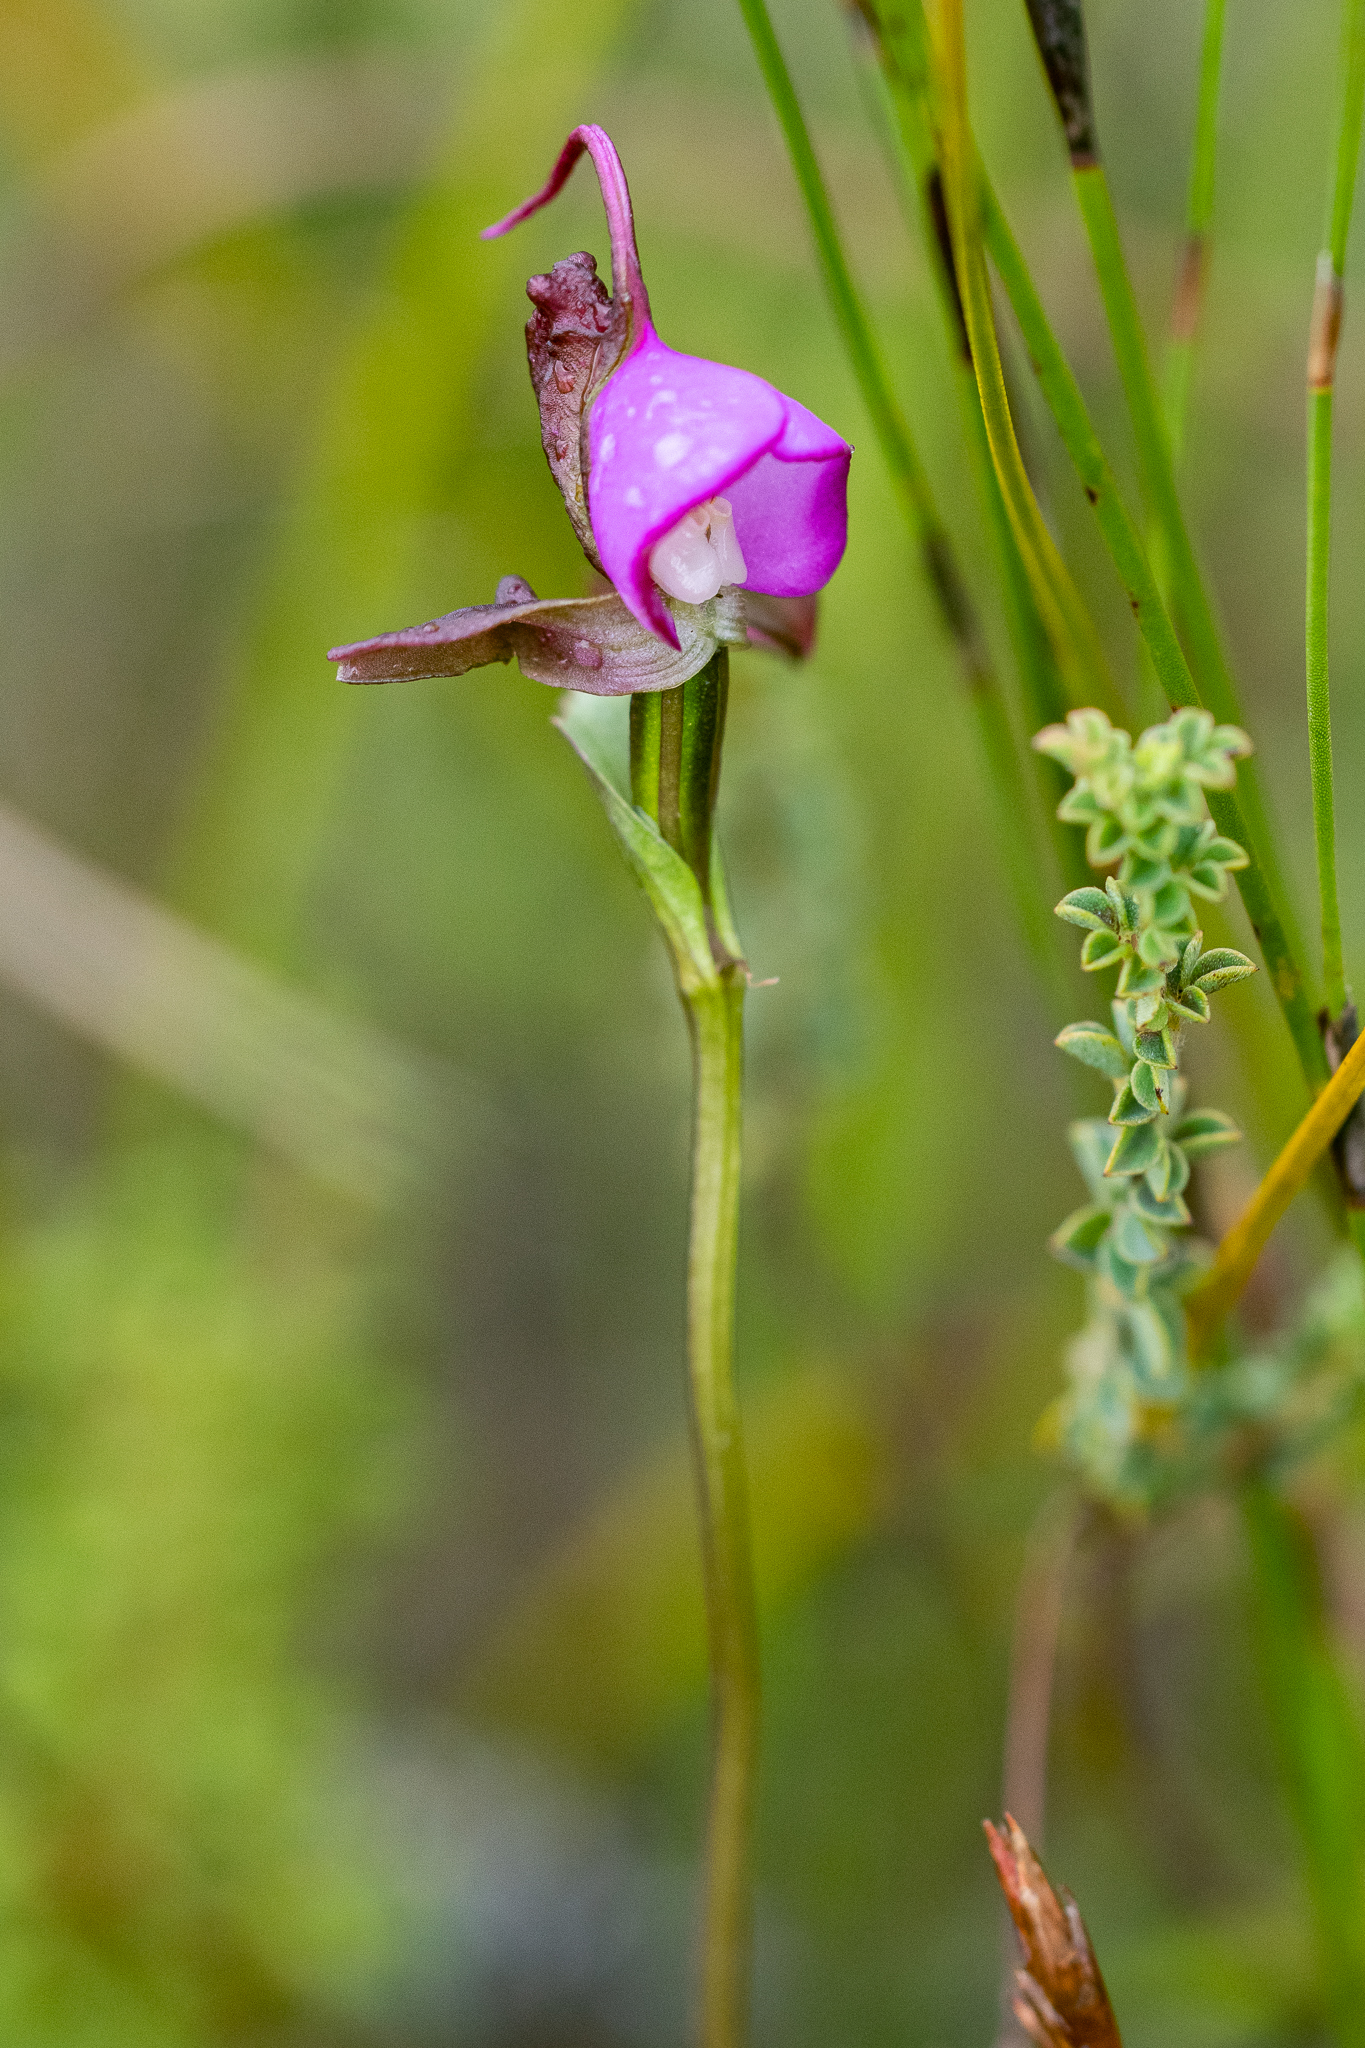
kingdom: Plantae
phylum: Tracheophyta
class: Liliopsida
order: Asparagales
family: Orchidaceae
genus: Disperis
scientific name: Disperis capensis
